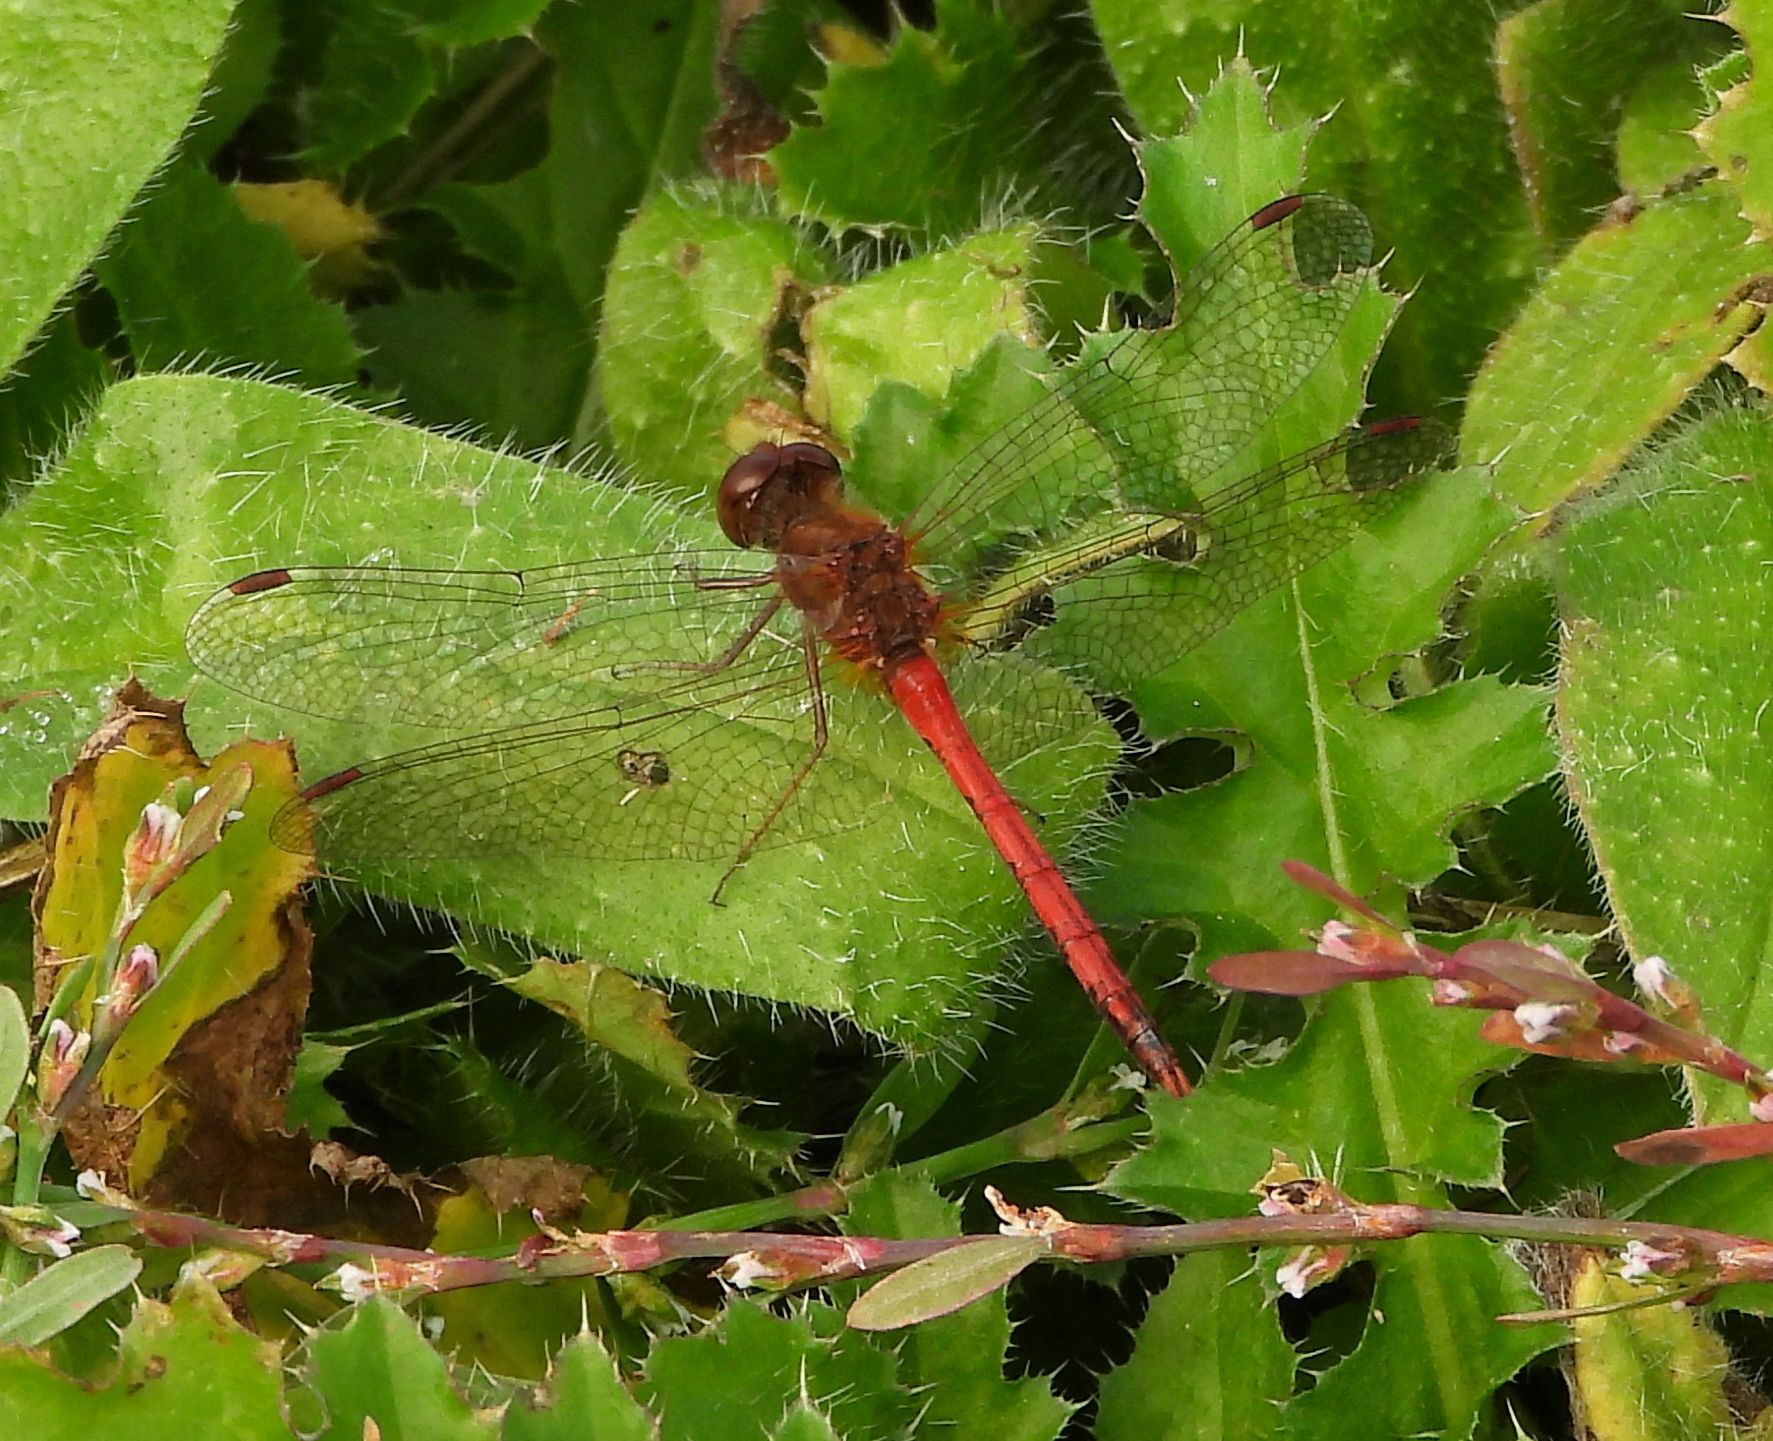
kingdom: Animalia
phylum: Arthropoda
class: Insecta
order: Odonata
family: Libellulidae
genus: Sympetrum
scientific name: Sympetrum vicinum
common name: Autumn meadowhawk
